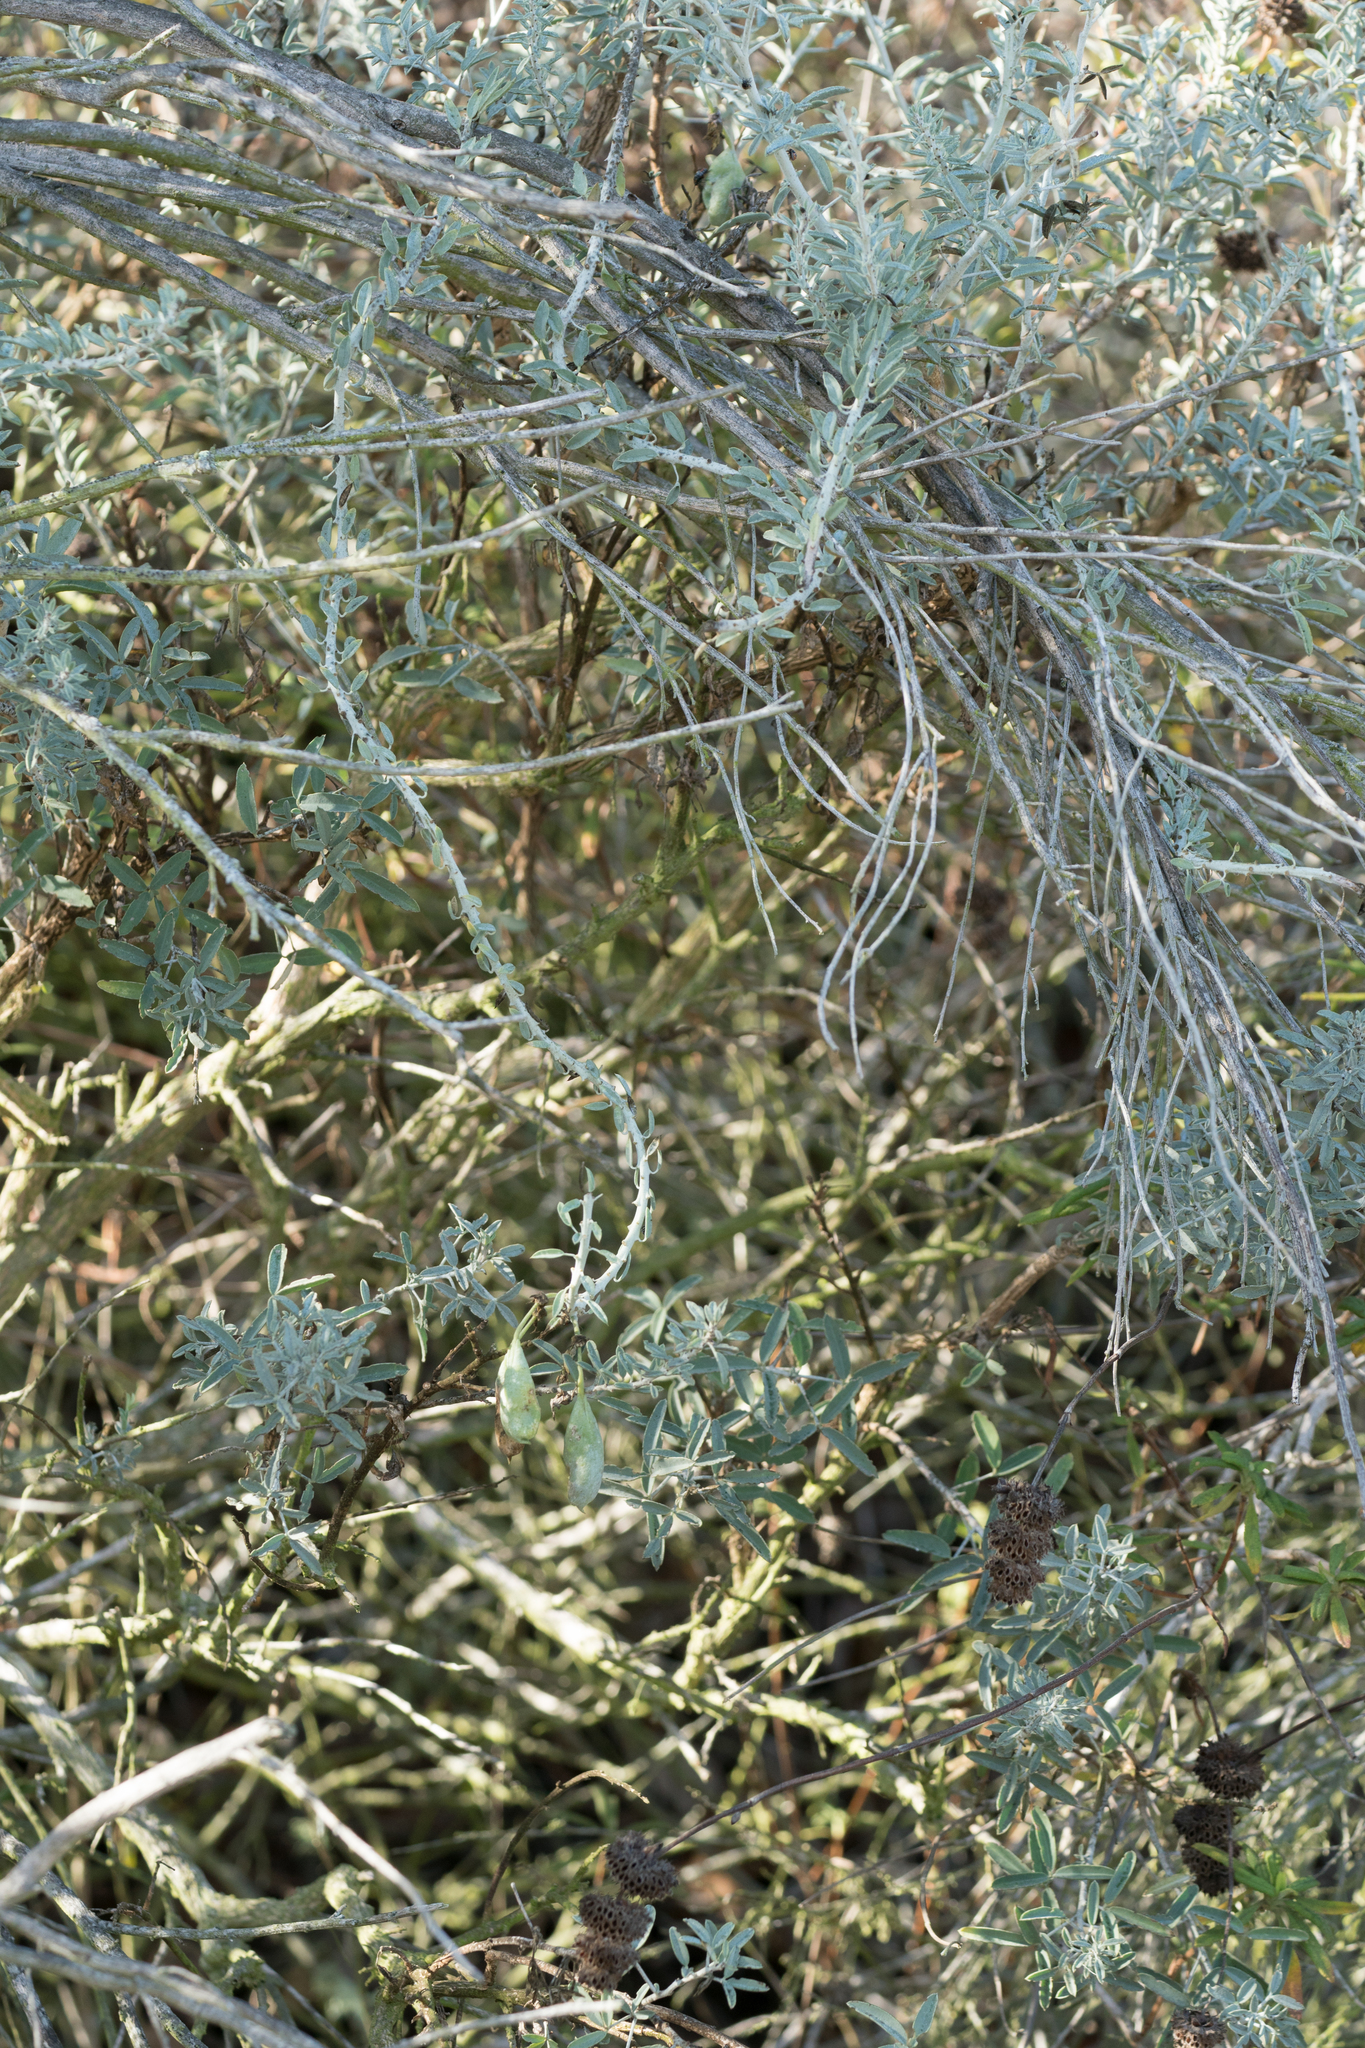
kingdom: Plantae
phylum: Tracheophyta
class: Magnoliopsida
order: Brassicales
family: Cleomaceae
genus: Cleomella
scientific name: Cleomella arborea
